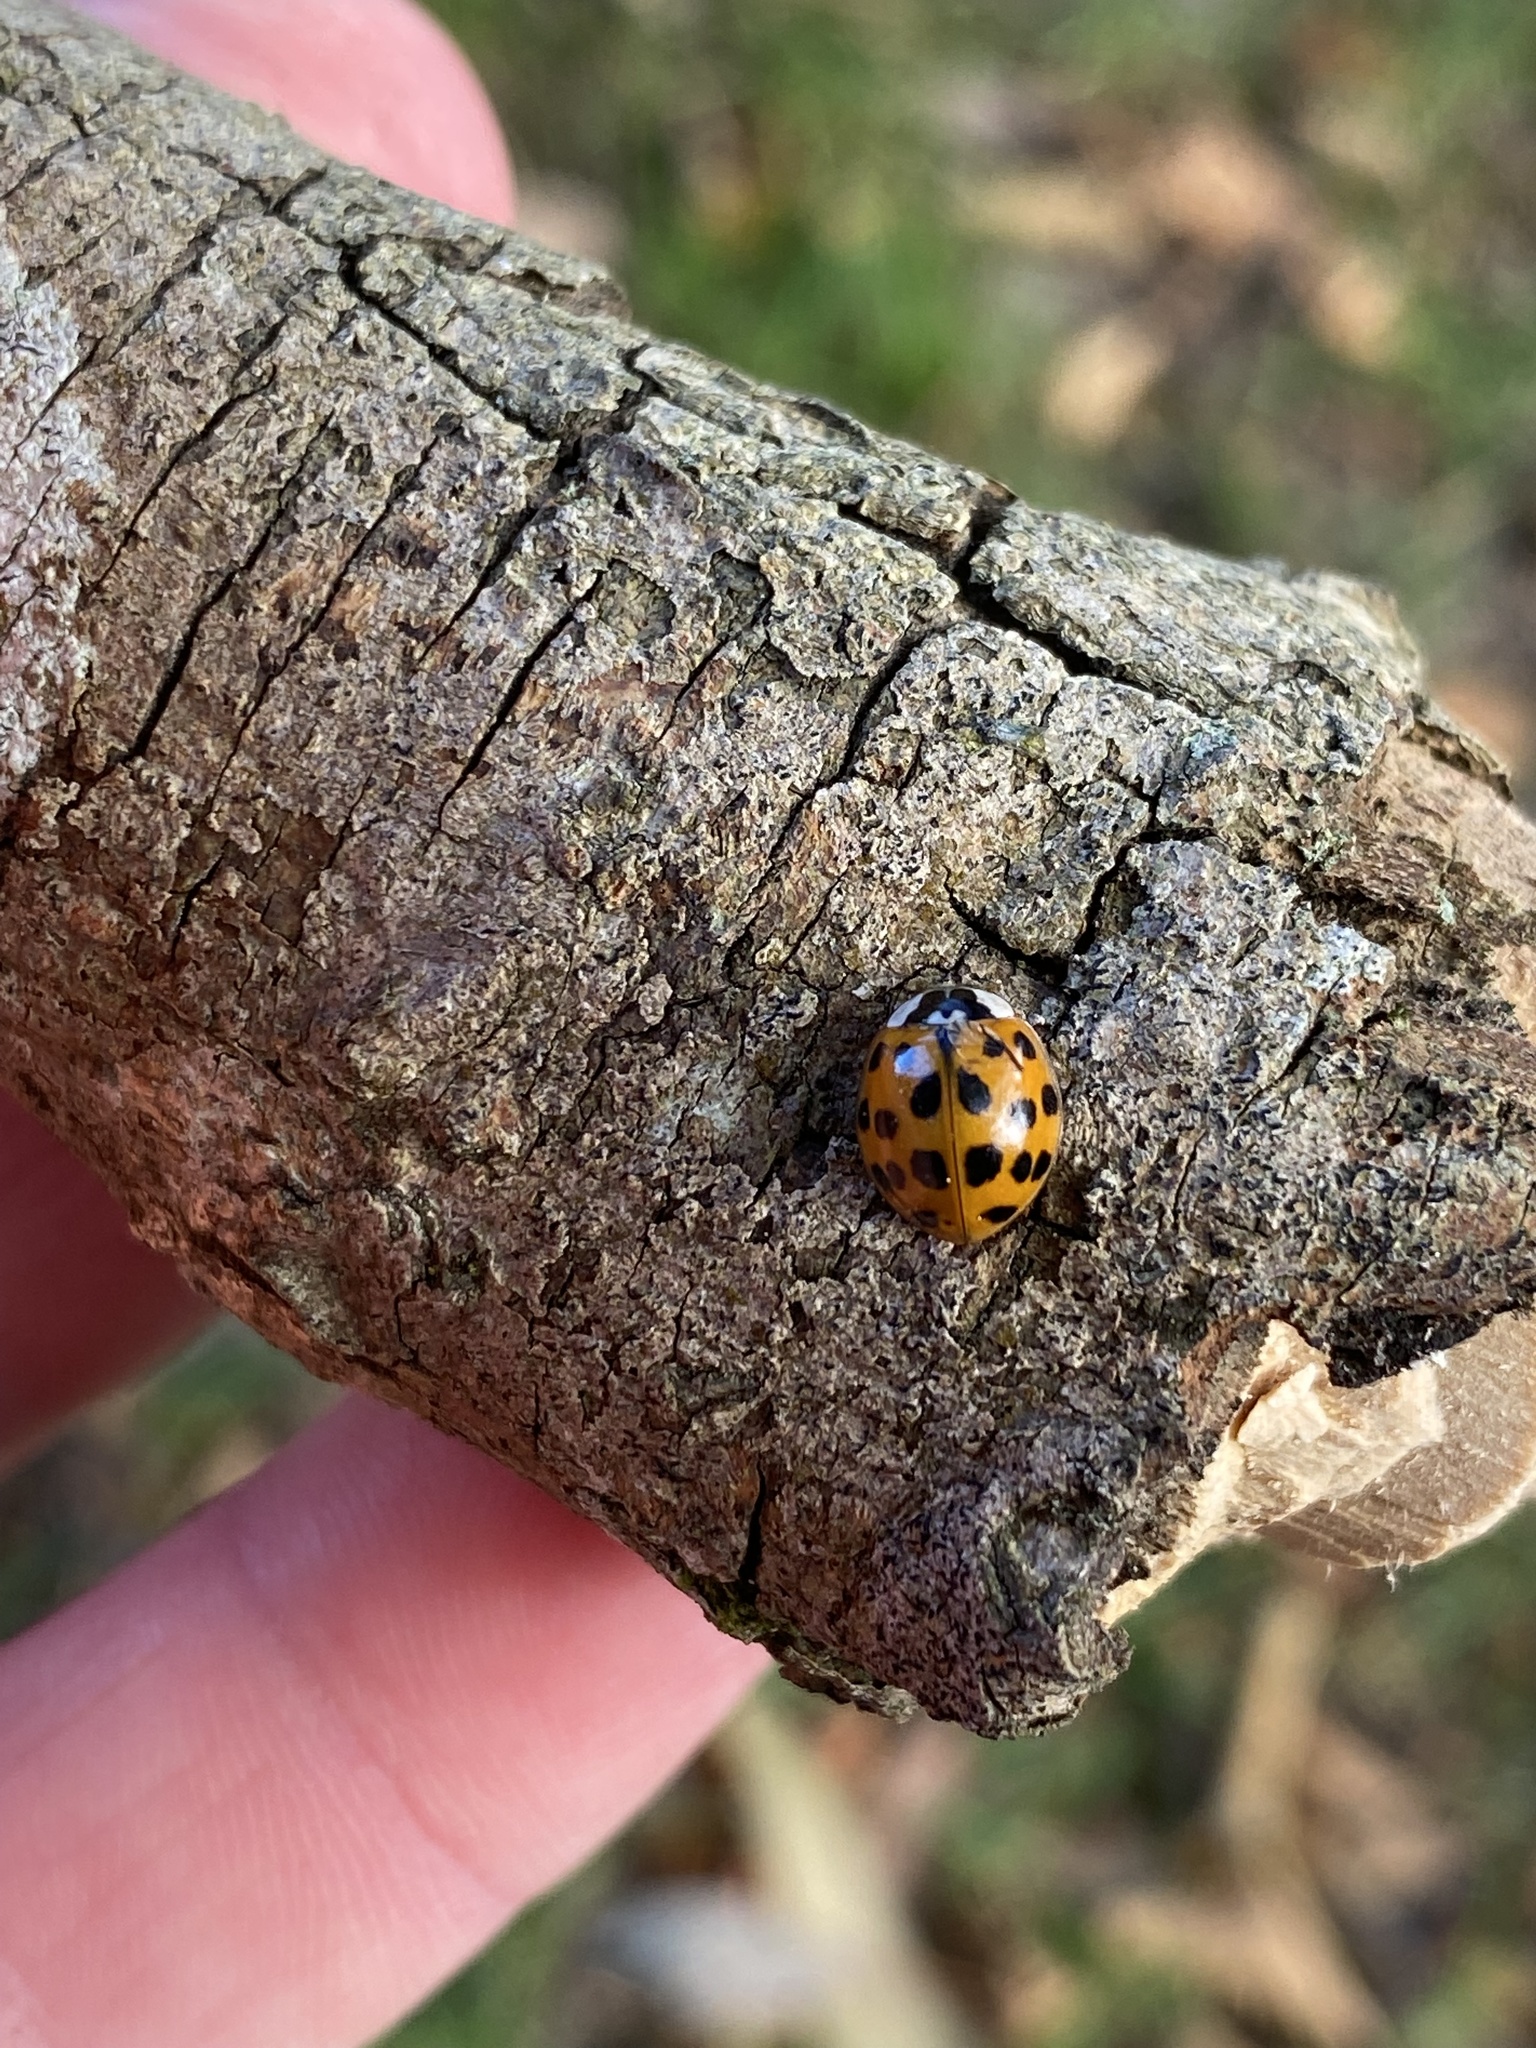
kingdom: Animalia
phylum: Arthropoda
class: Insecta
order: Coleoptera
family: Coccinellidae
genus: Harmonia
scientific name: Harmonia axyridis
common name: Harlequin ladybird
